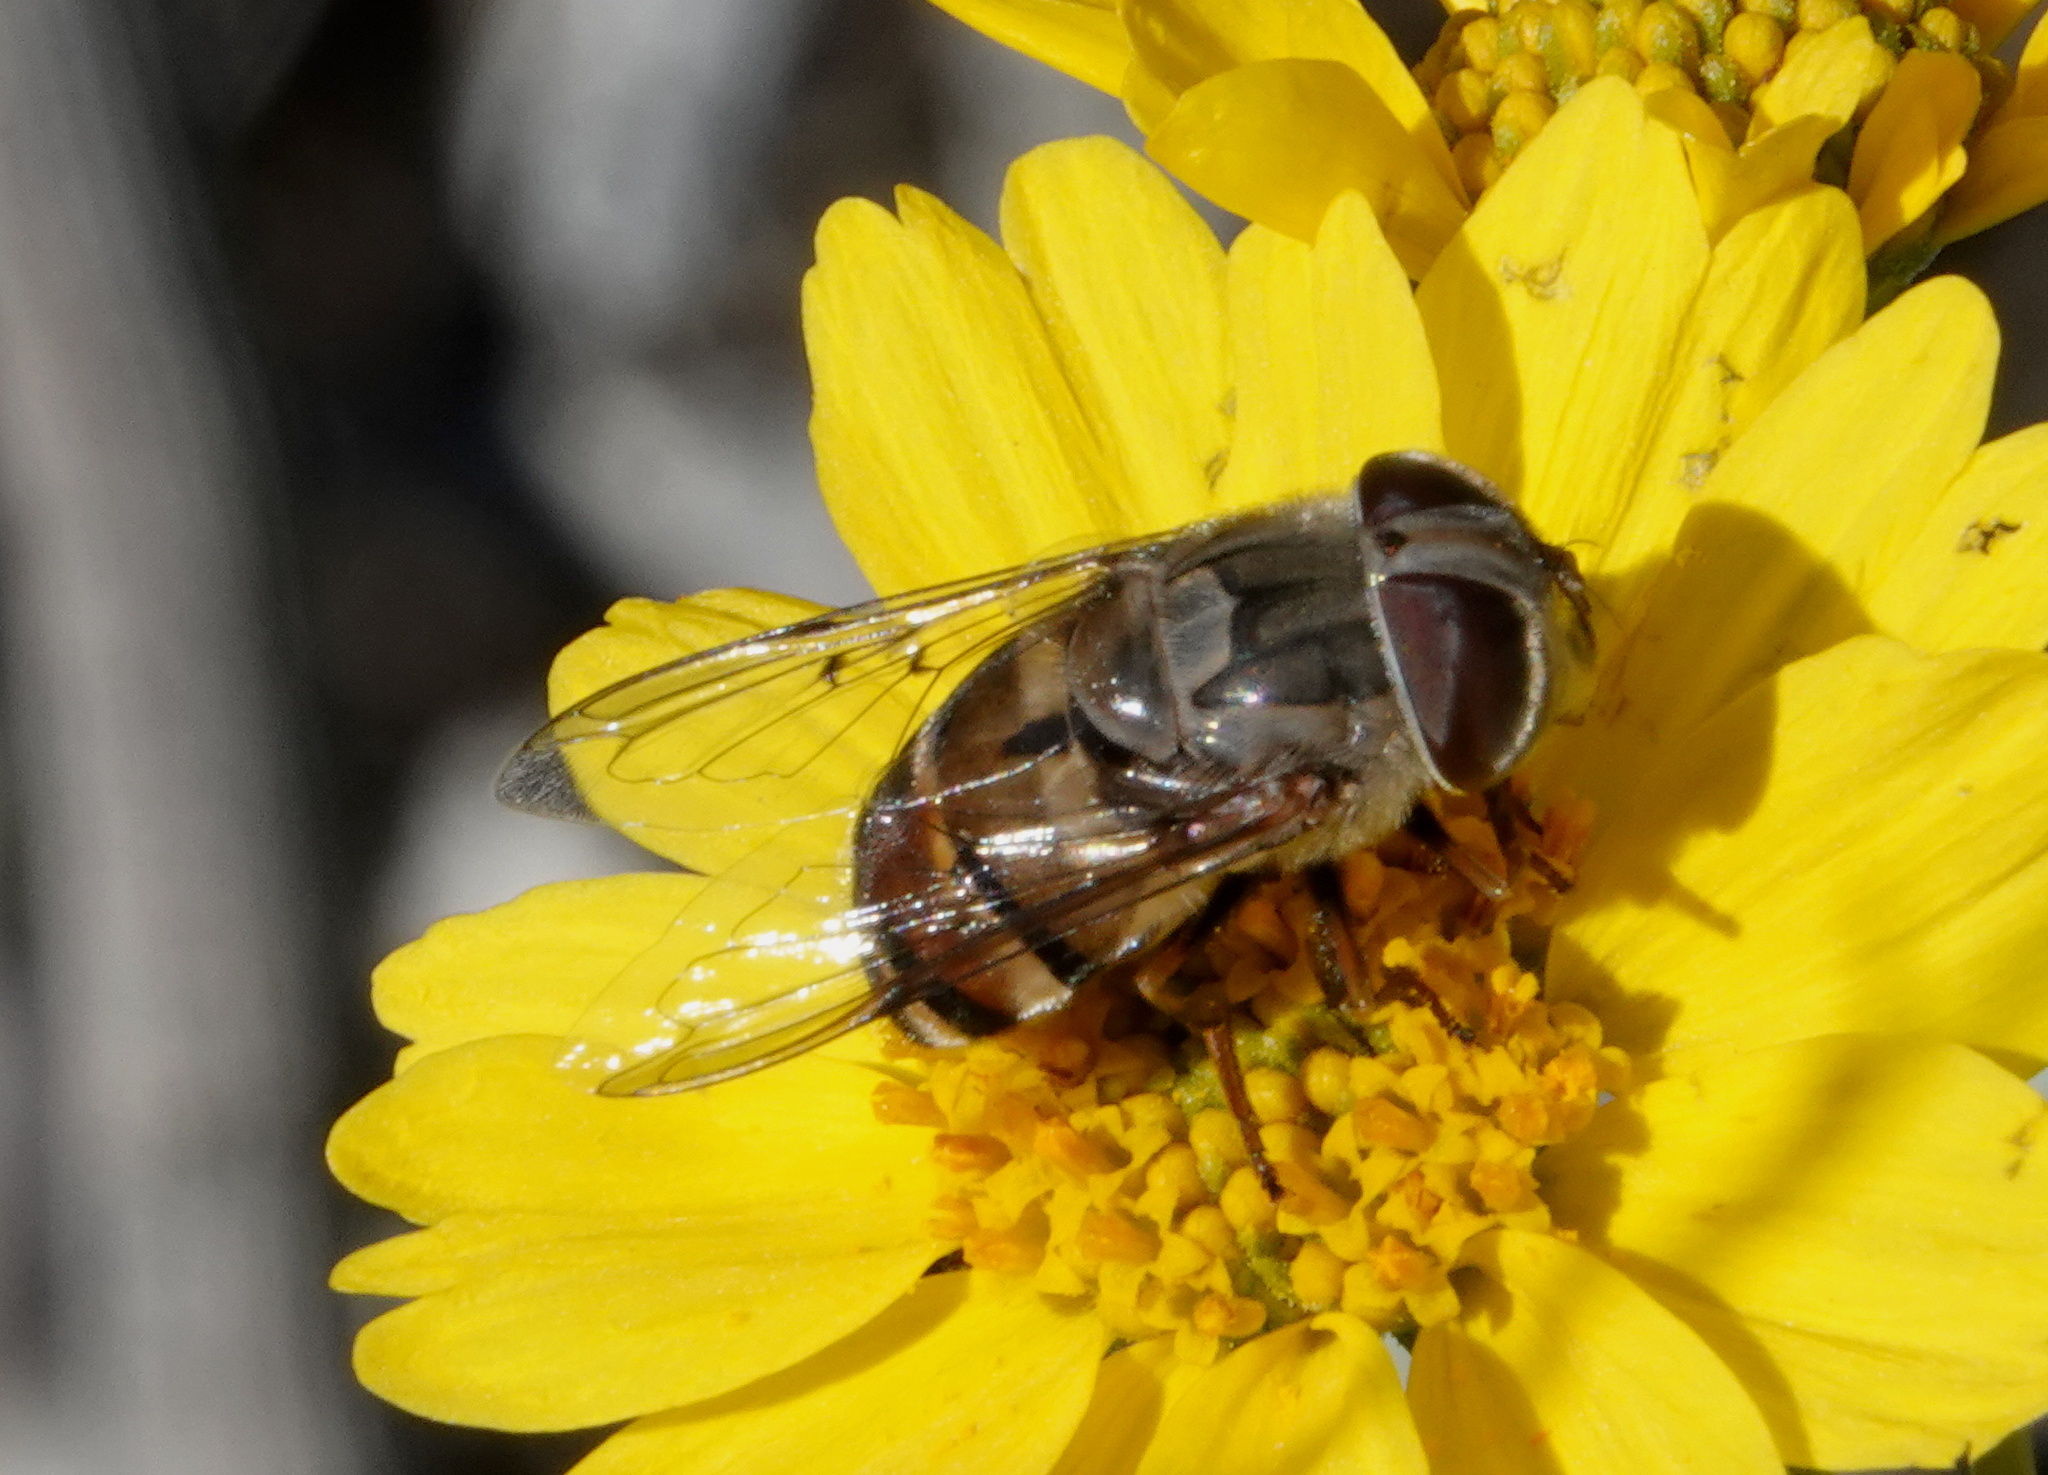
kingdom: Animalia
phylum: Arthropoda
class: Insecta
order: Diptera
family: Syrphidae
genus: Copestylum
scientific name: Copestylum isabellina
